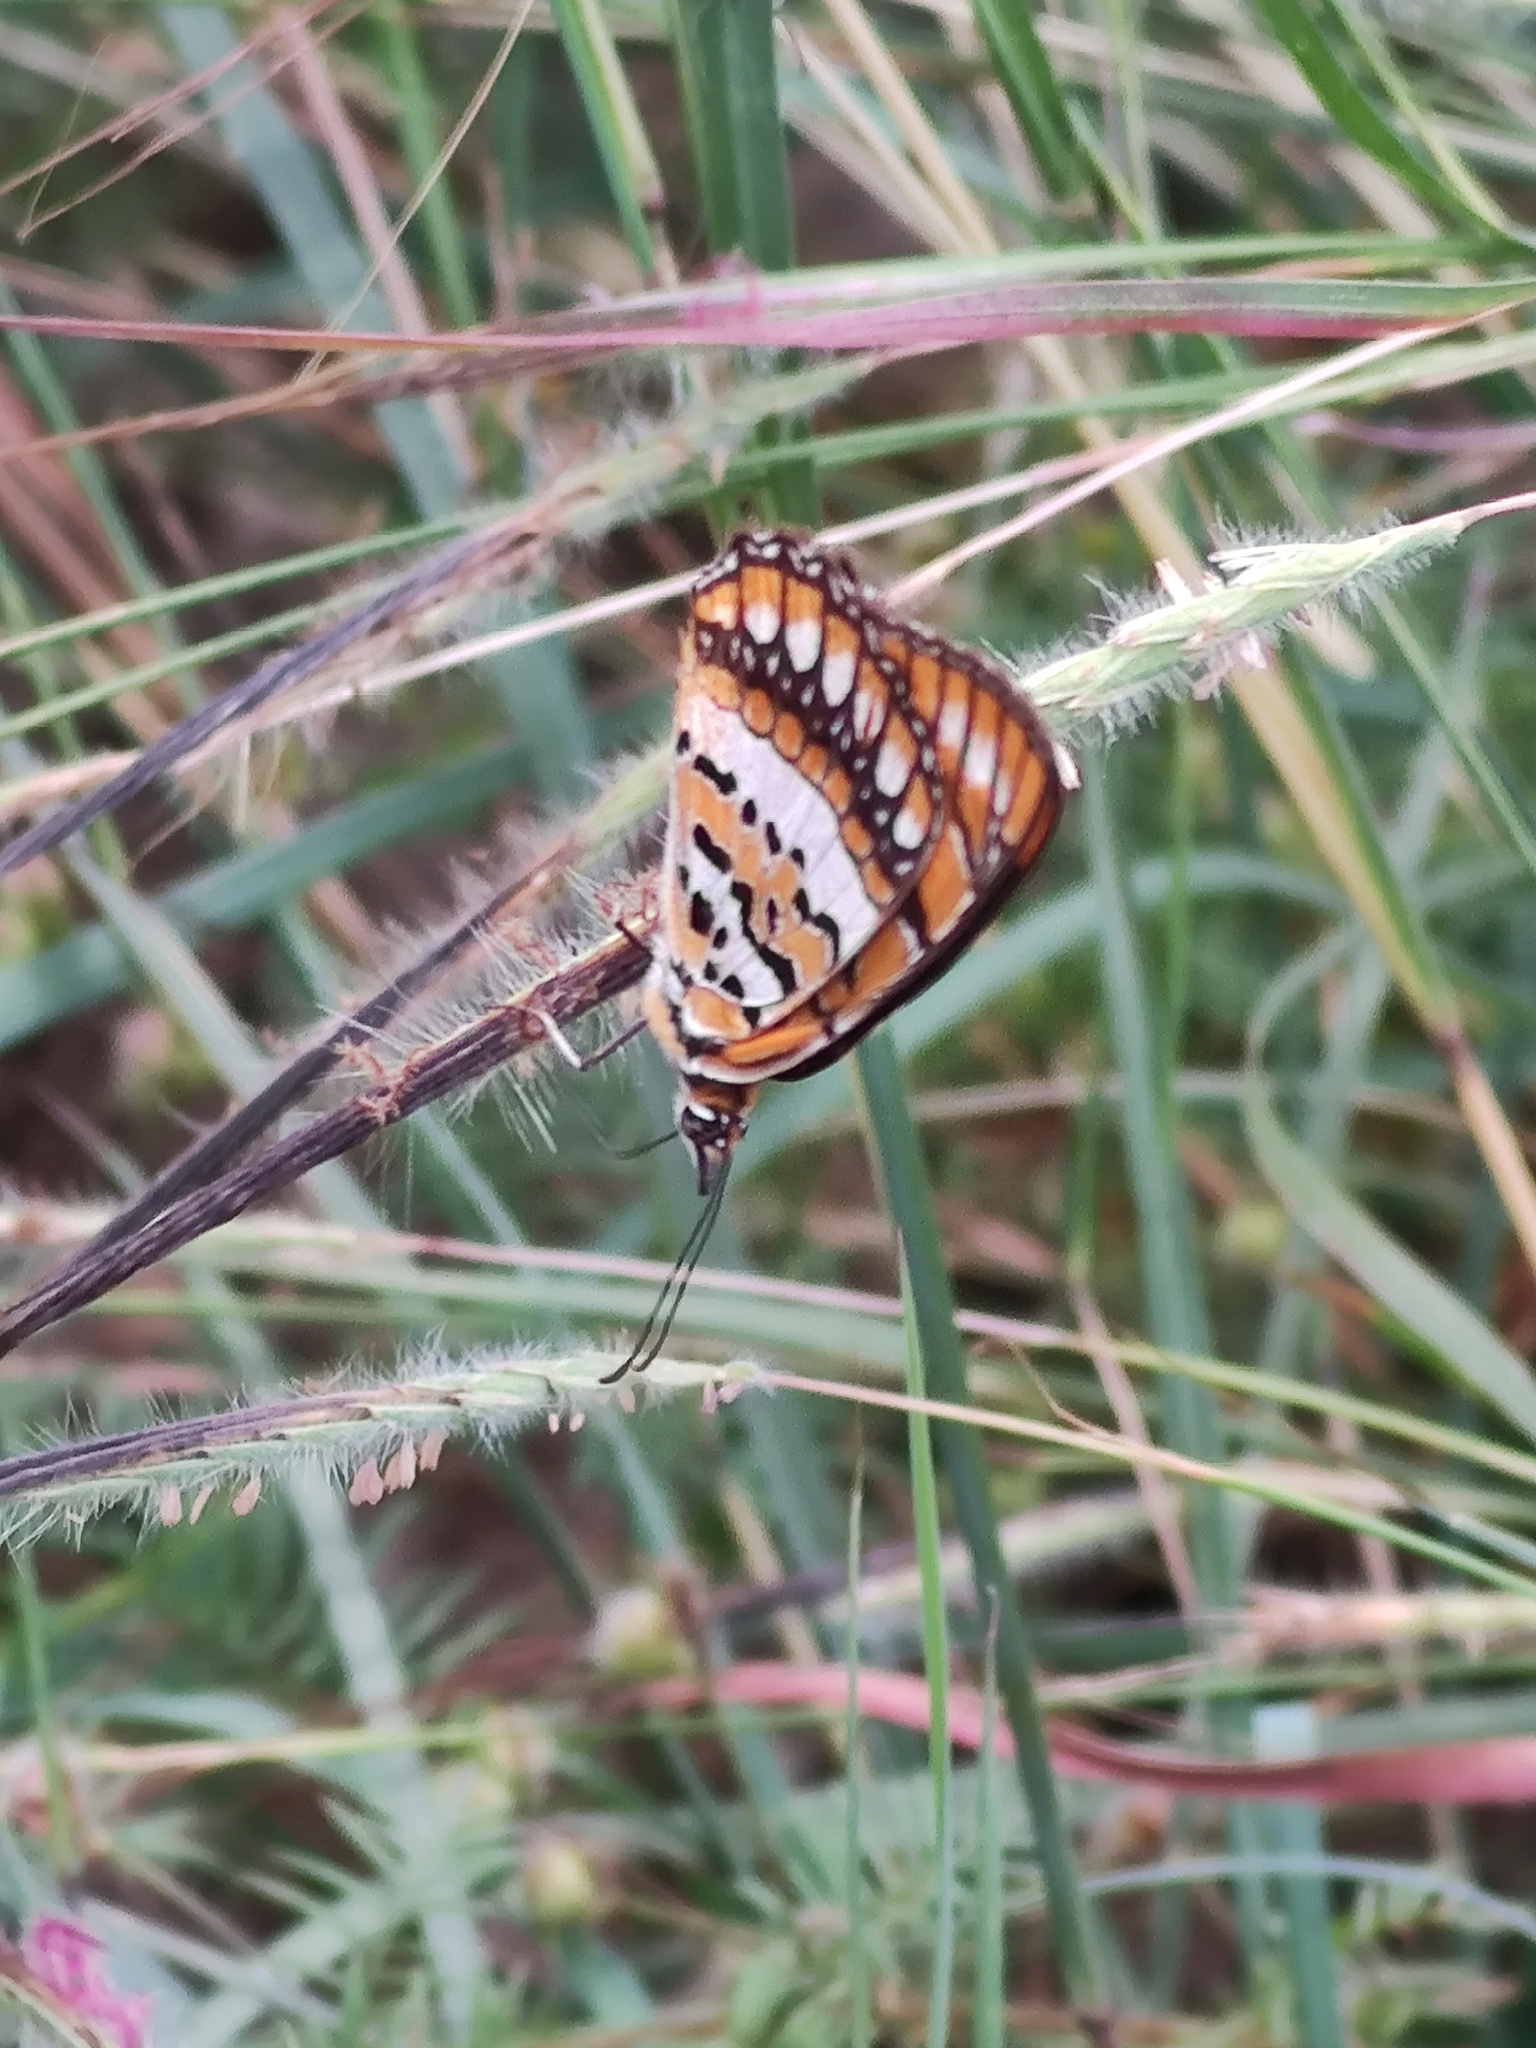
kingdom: Animalia
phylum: Arthropoda
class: Insecta
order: Lepidoptera
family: Nymphalidae
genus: Byblia
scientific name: Byblia ilithyia
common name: Spotted joker
